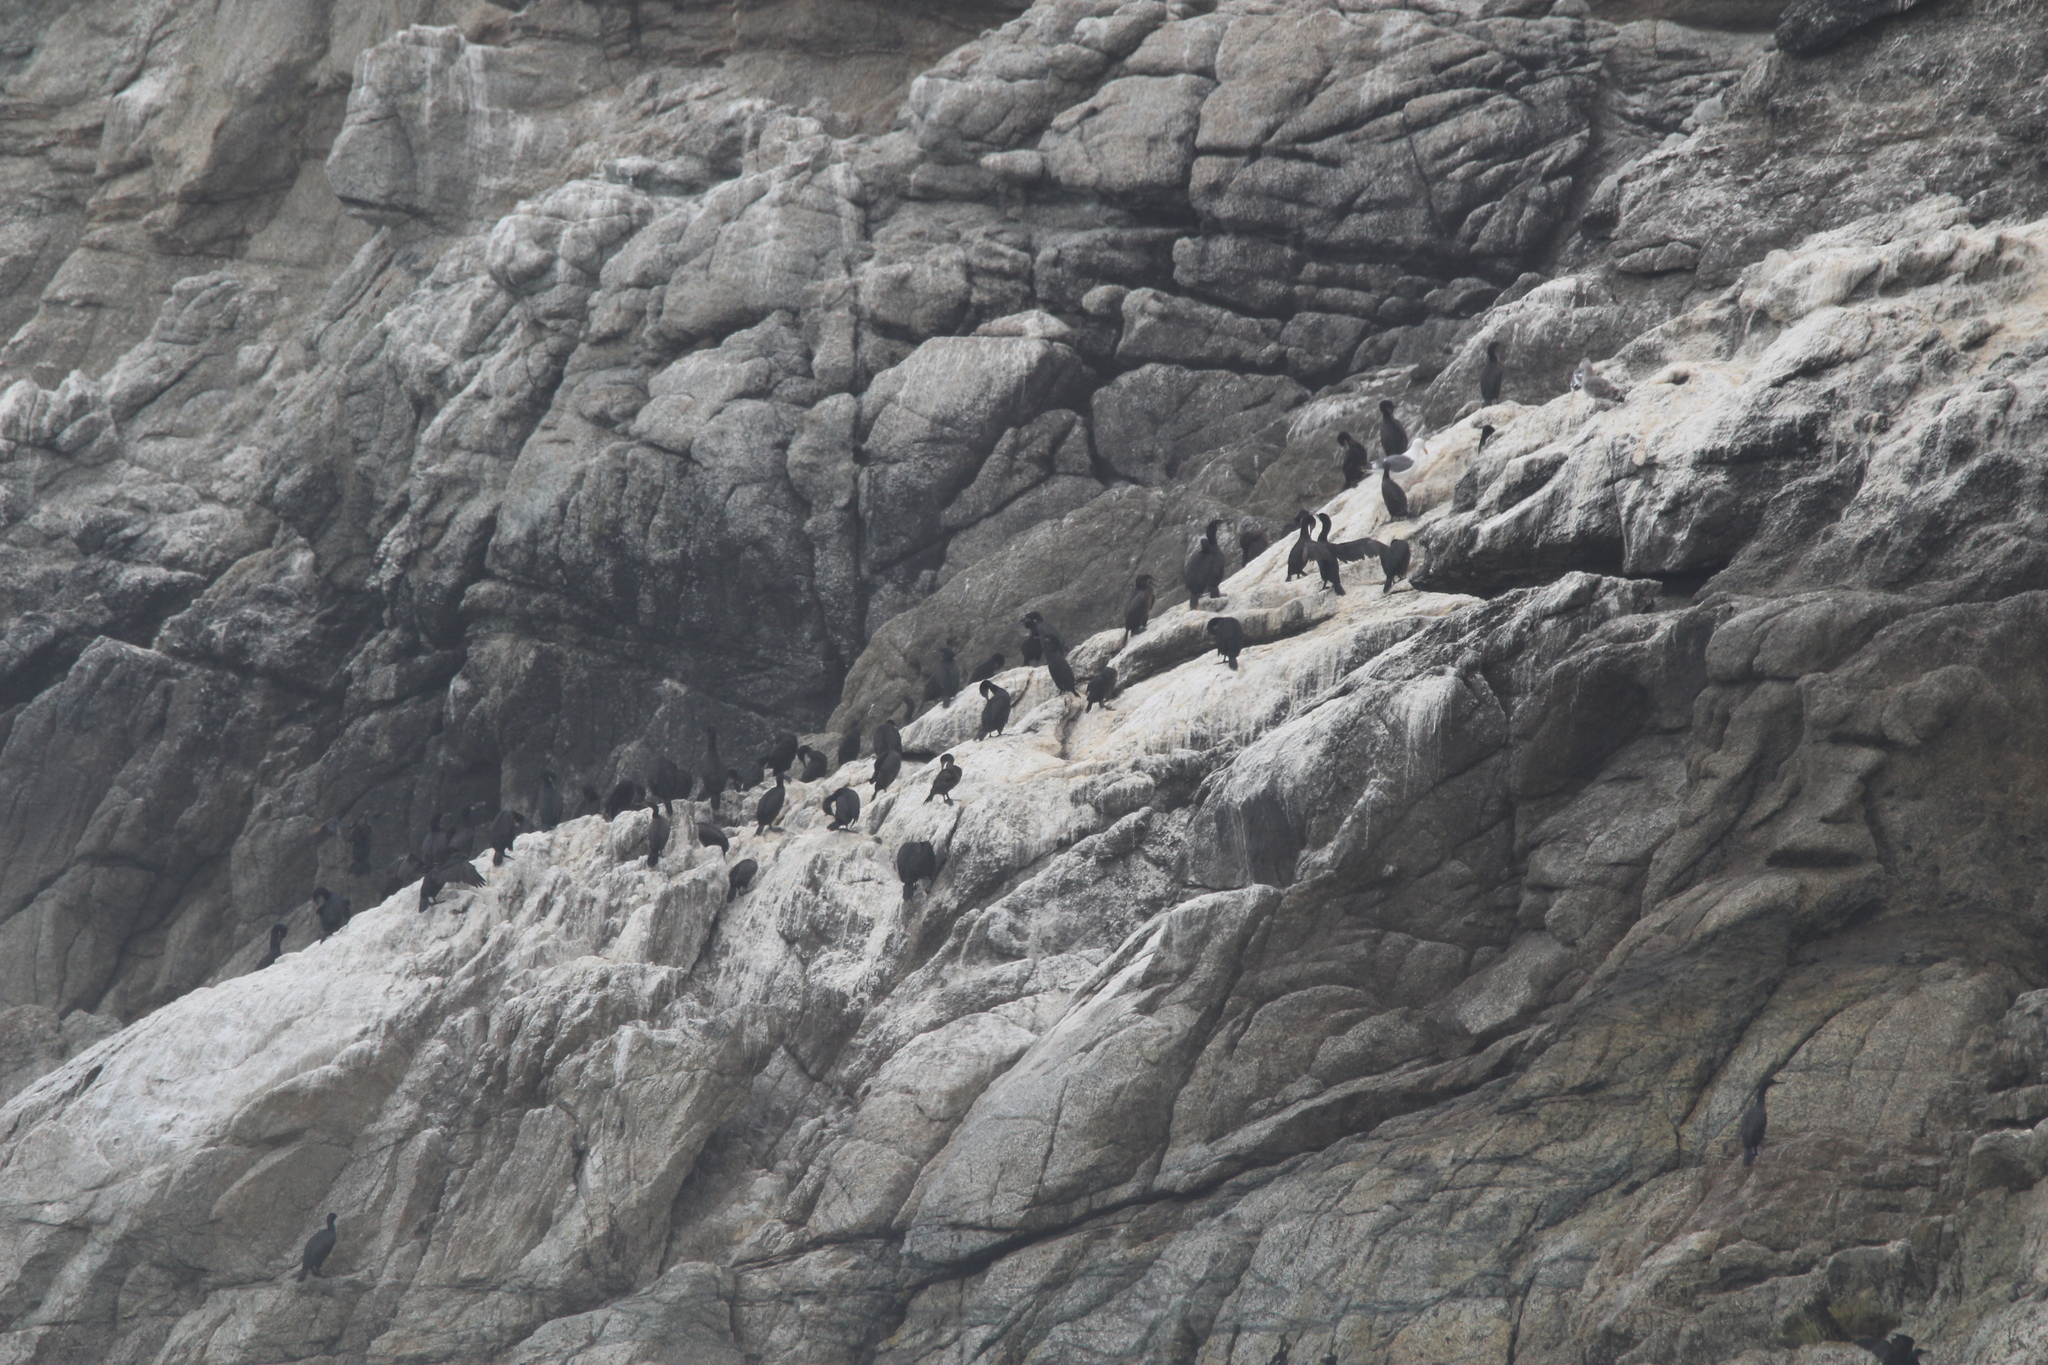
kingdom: Animalia
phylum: Chordata
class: Aves
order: Suliformes
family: Phalacrocoracidae
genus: Urile
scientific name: Urile penicillatus
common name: Brandt's cormorant
